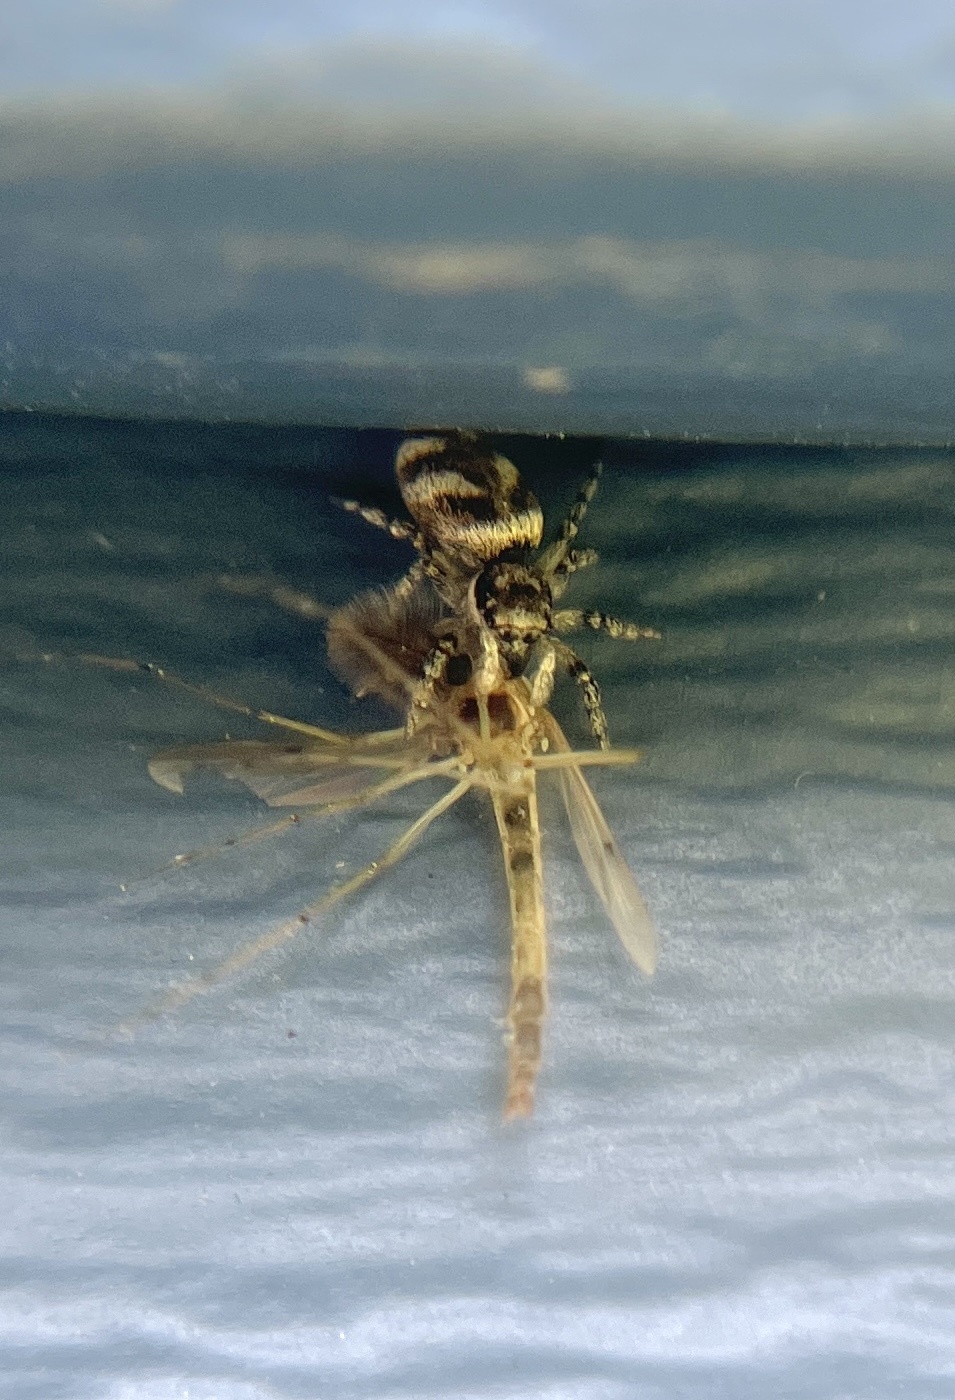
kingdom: Animalia
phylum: Arthropoda
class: Arachnida
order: Araneae
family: Salticidae
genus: Salticus
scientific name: Salticus scenicus
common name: Zebra jumper
